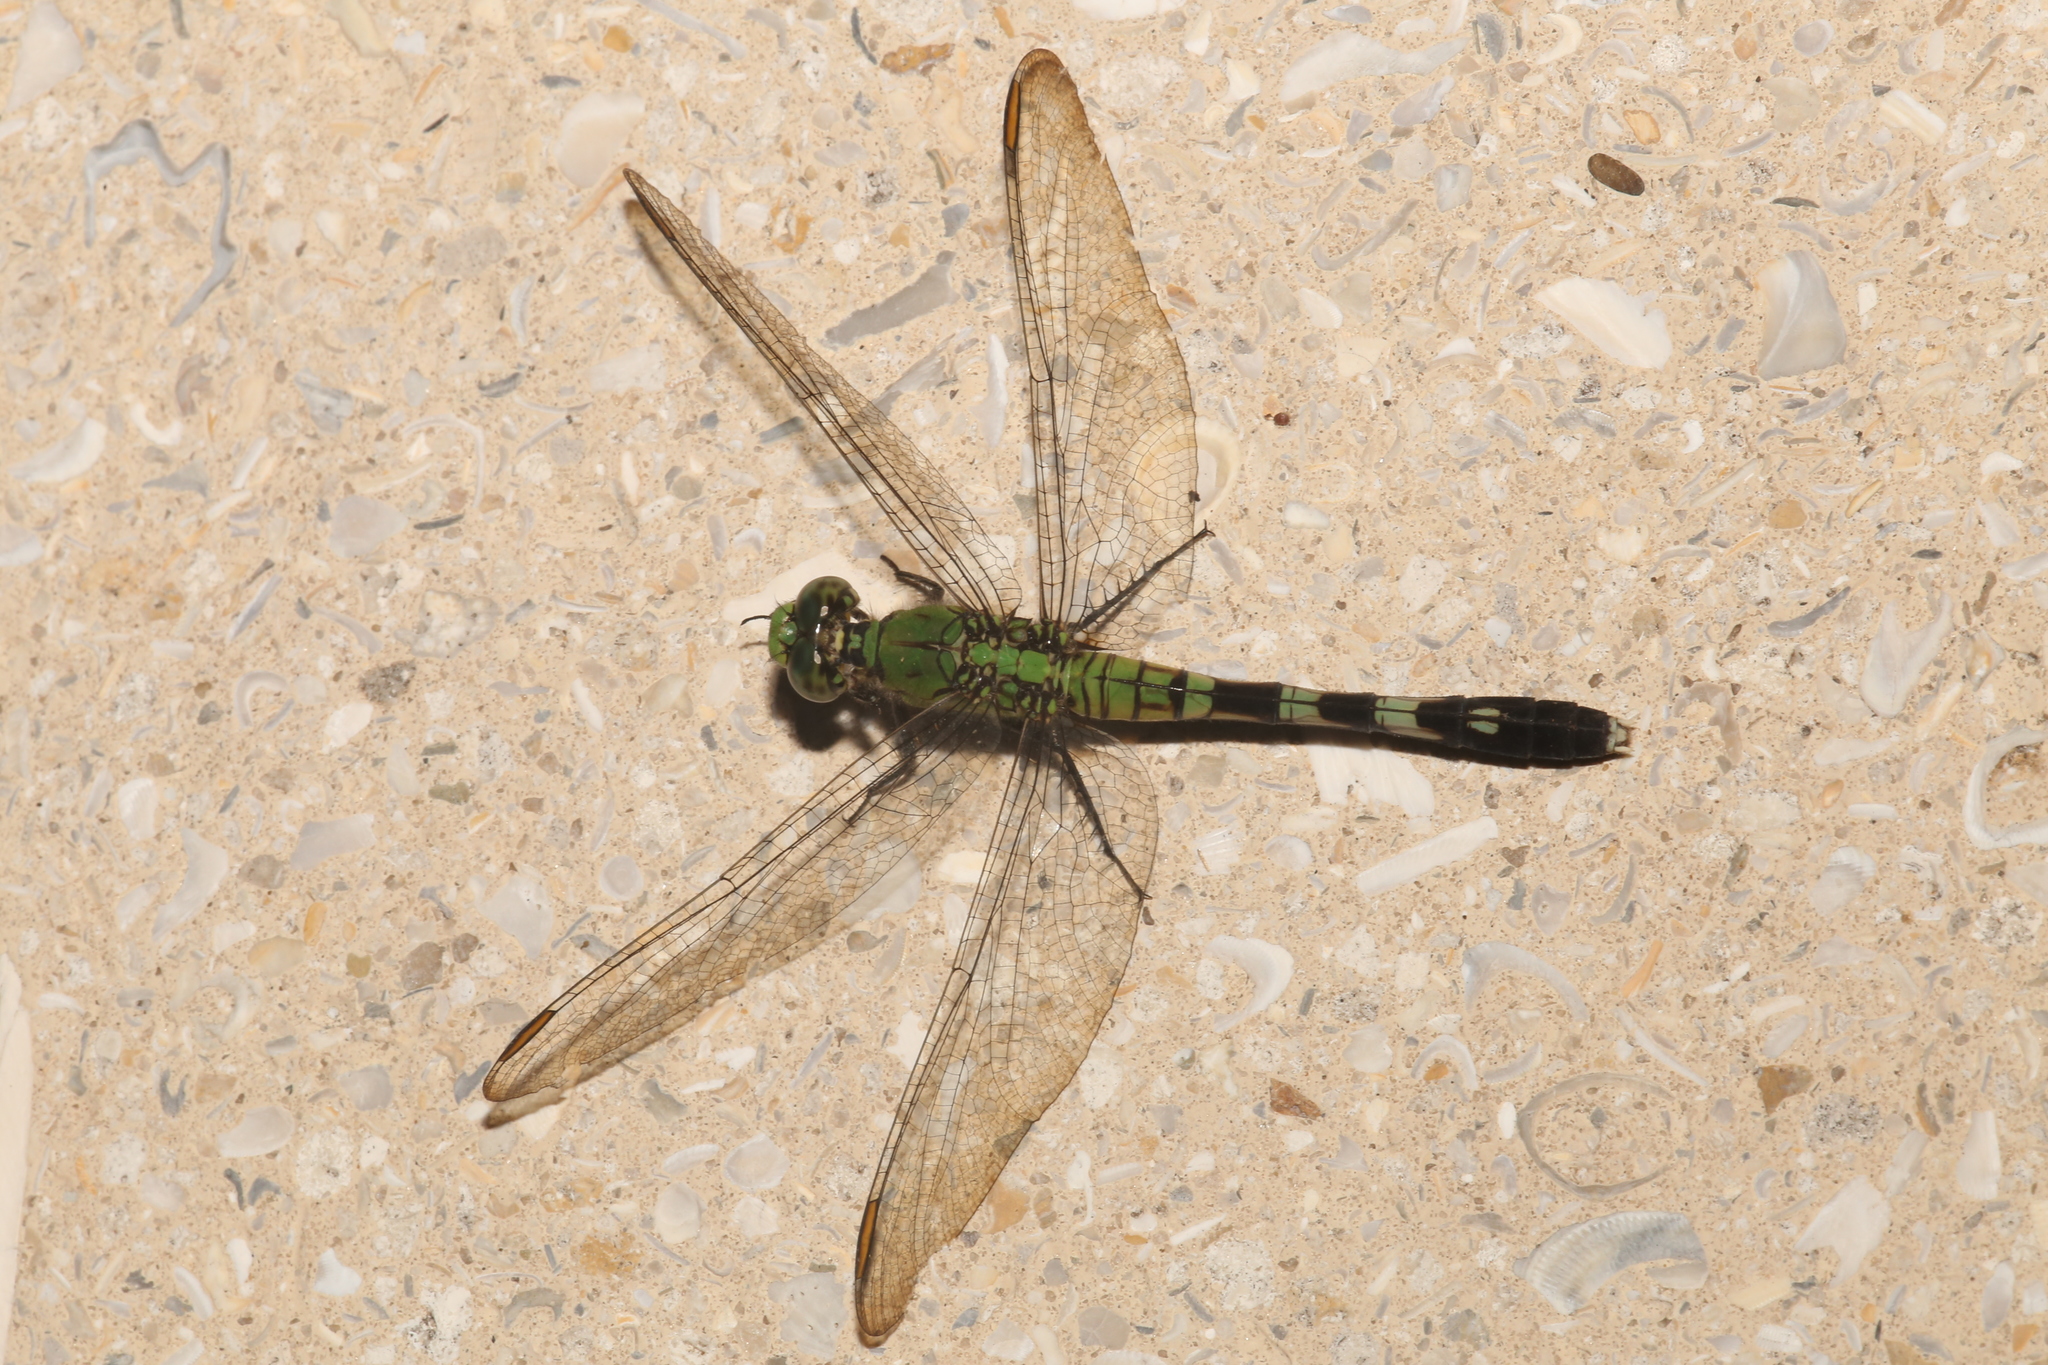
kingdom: Animalia
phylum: Arthropoda
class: Insecta
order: Odonata
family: Libellulidae
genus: Erythemis
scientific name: Erythemis simplicicollis
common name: Eastern pondhawk
